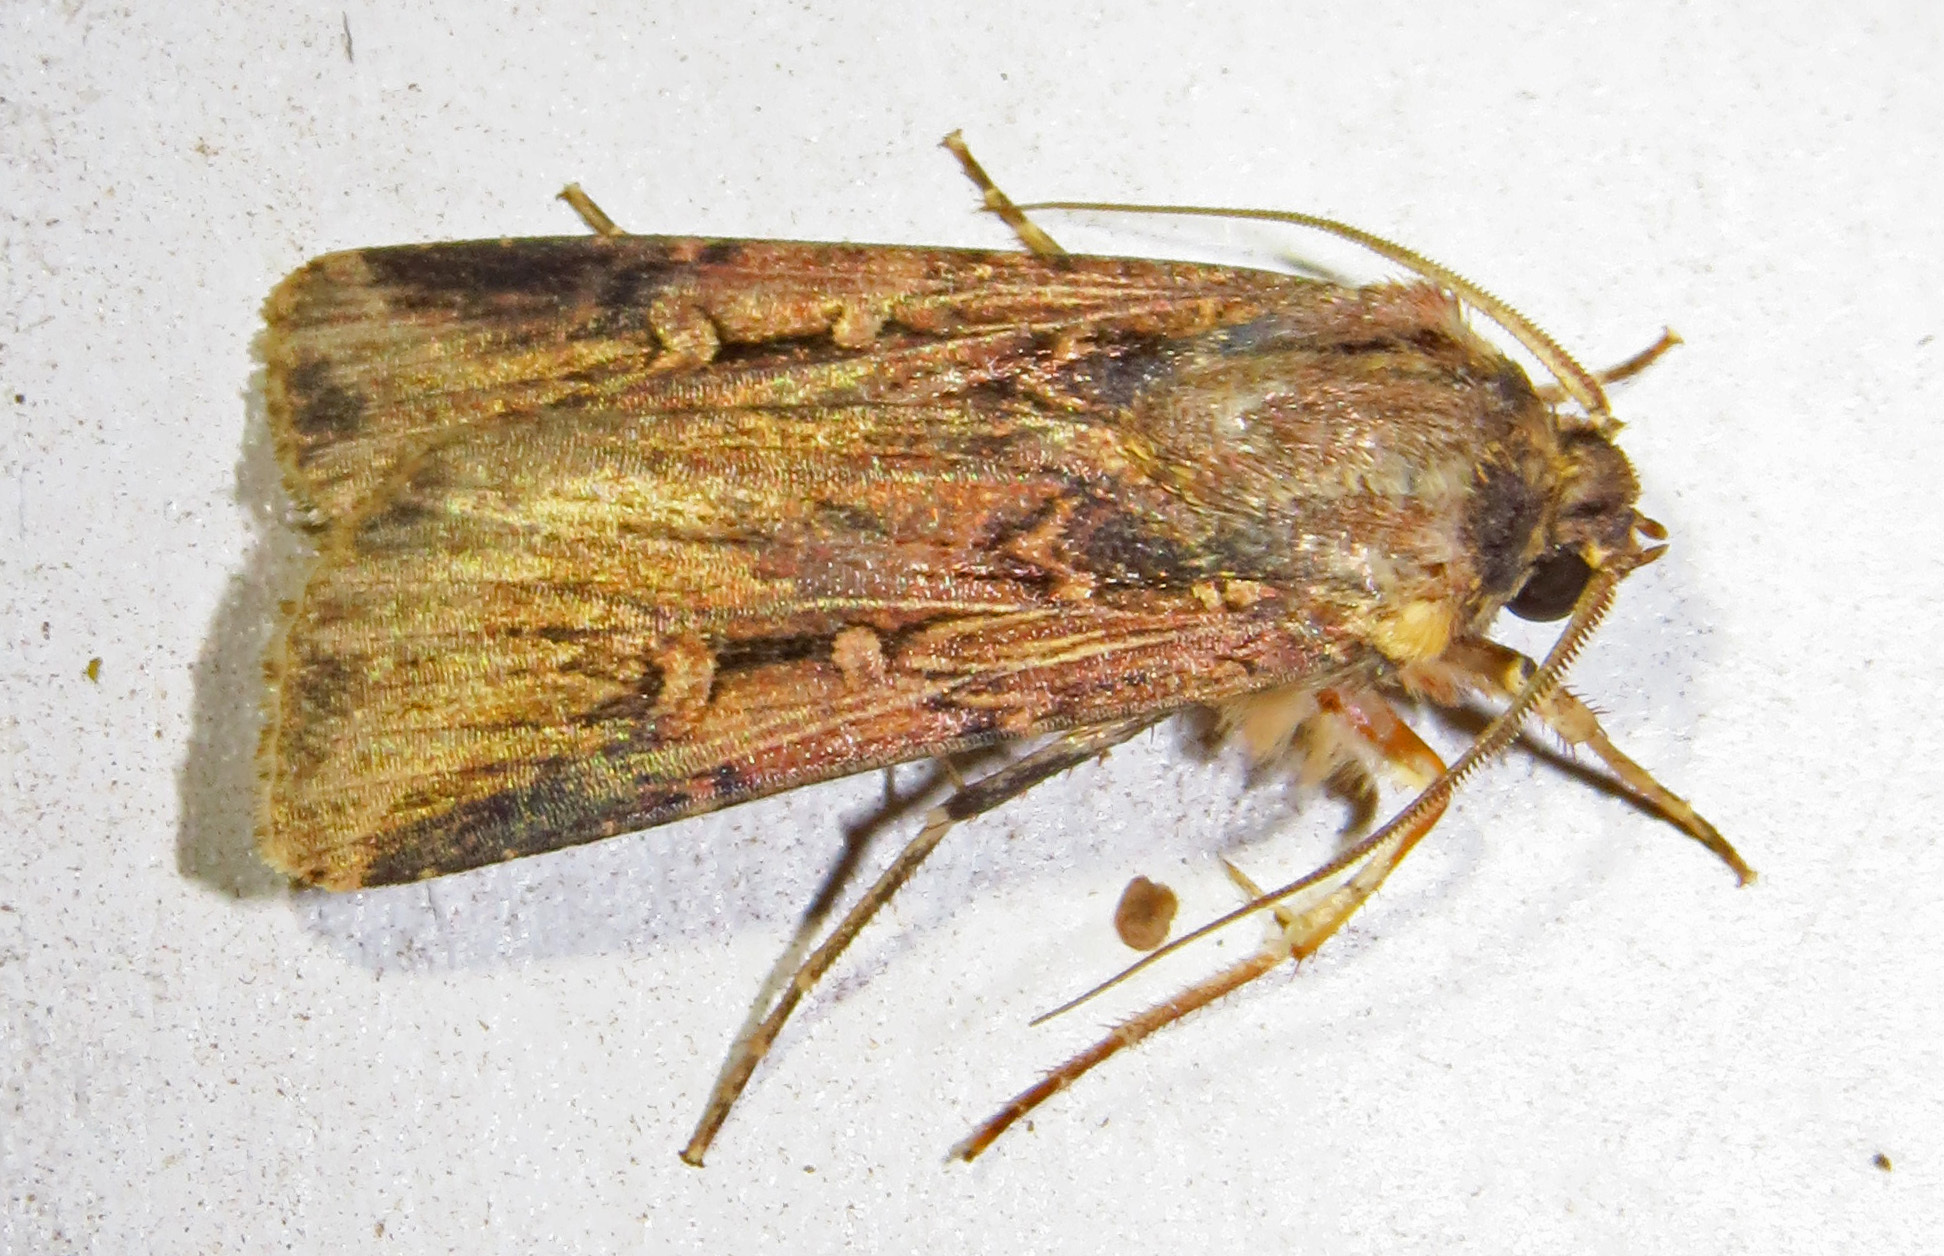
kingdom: Animalia
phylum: Arthropoda
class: Insecta
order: Lepidoptera
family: Noctuidae
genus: Feltia
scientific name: Feltia subterranea
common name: Granulate cutworm
